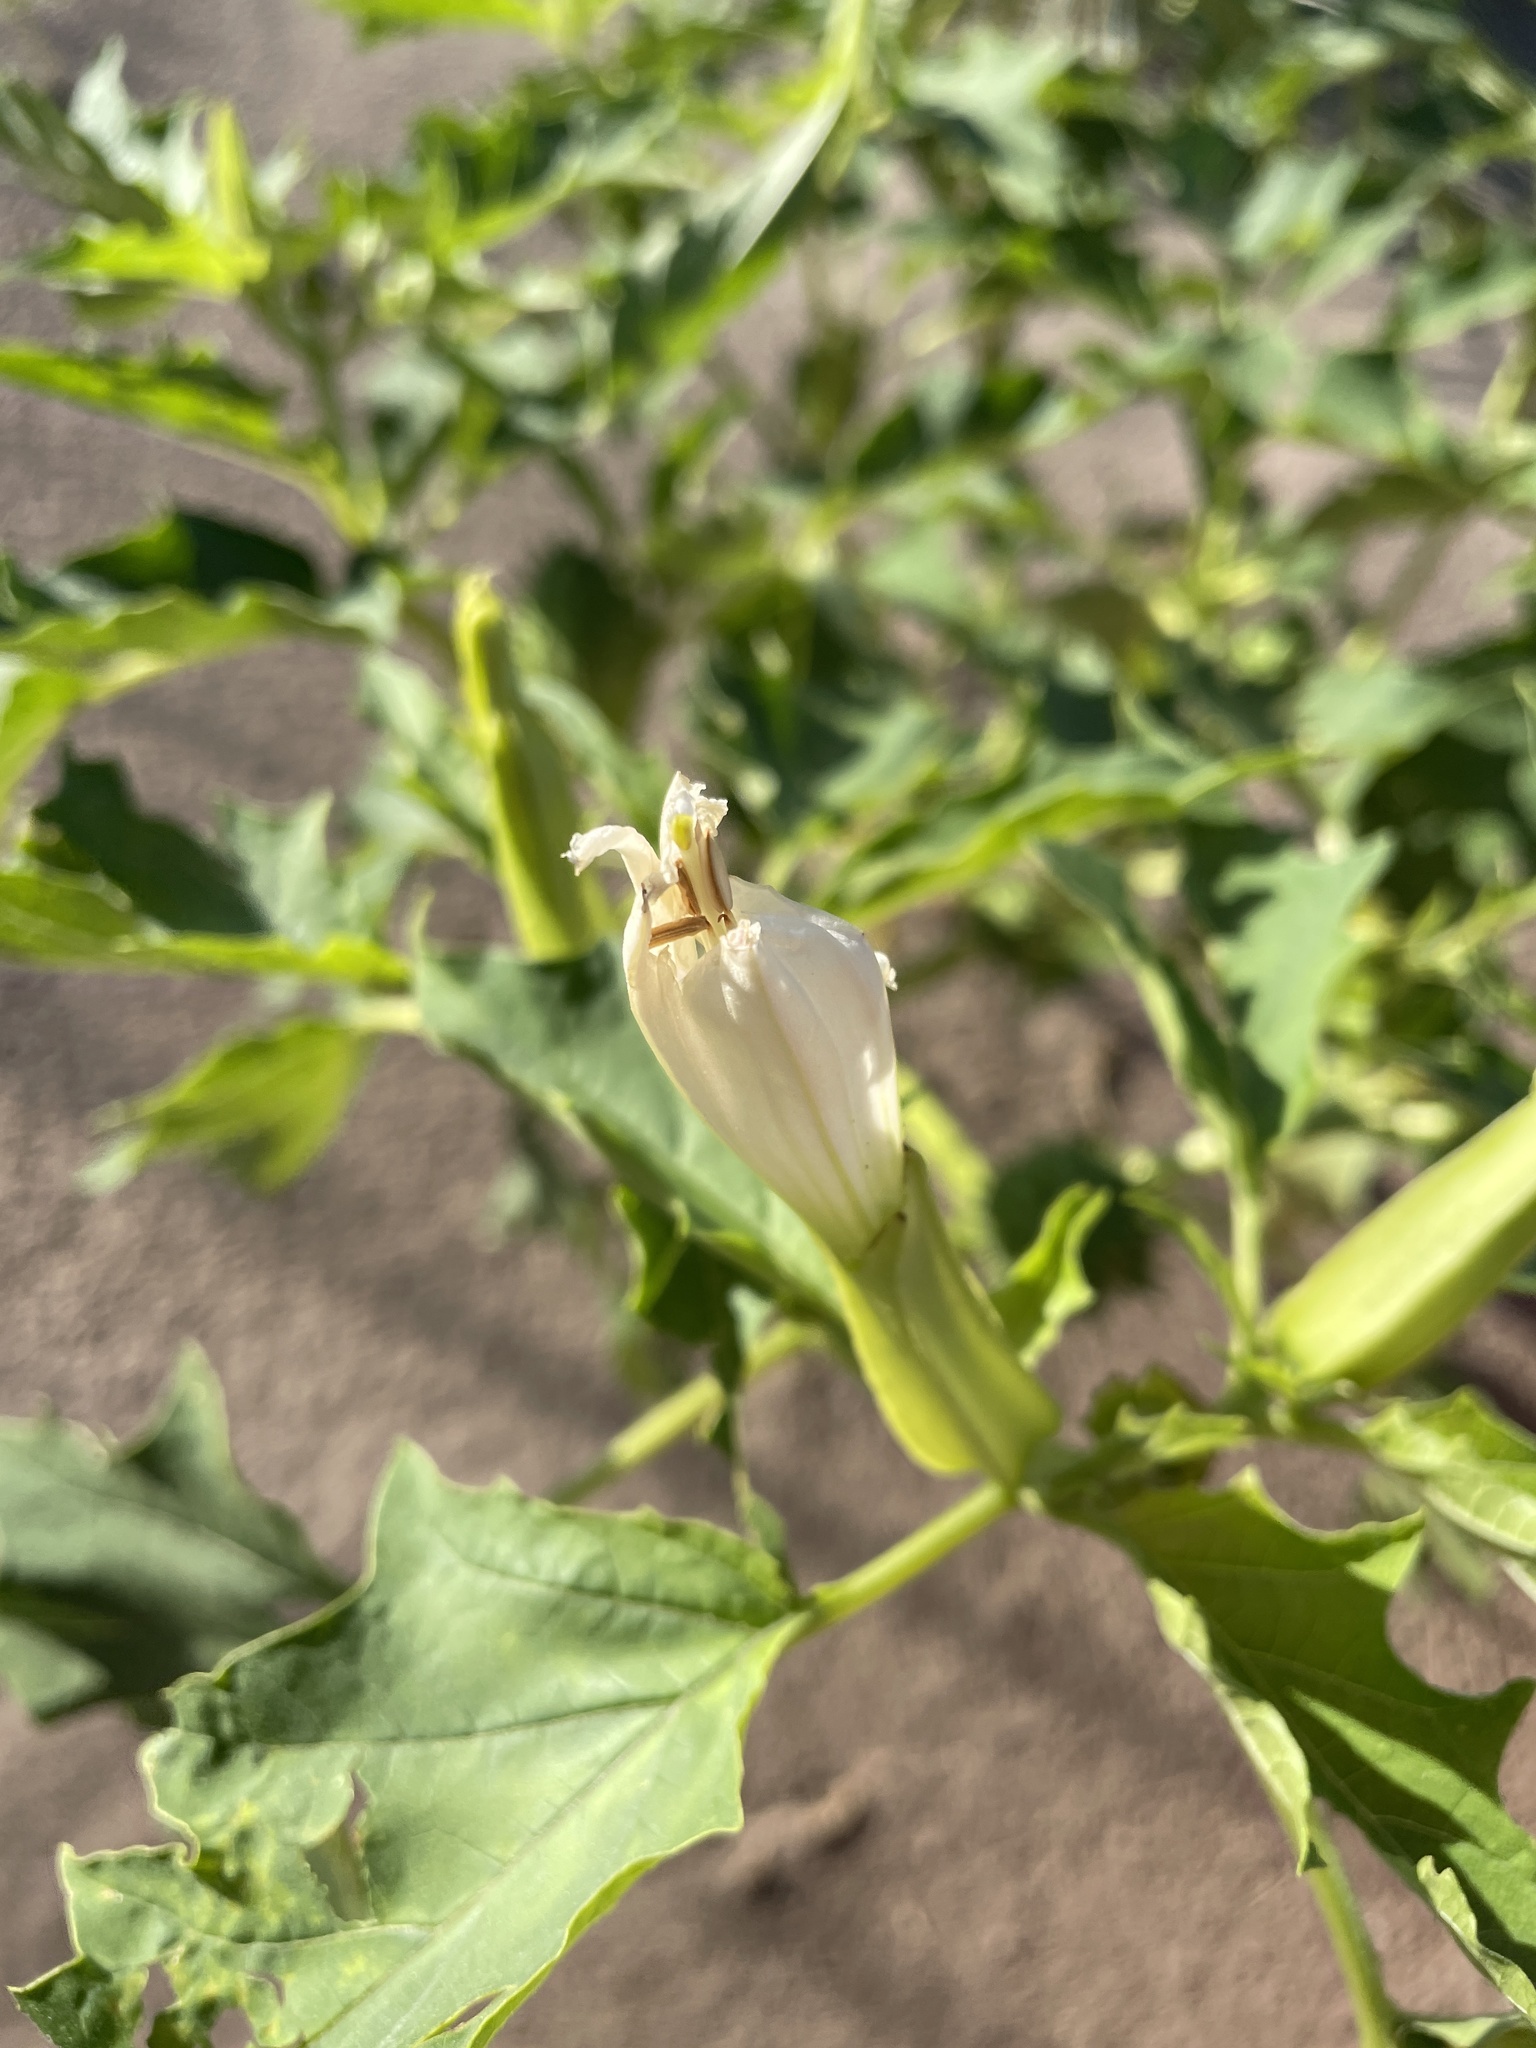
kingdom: Plantae
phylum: Tracheophyta
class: Magnoliopsida
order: Solanales
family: Solanaceae
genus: Datura
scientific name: Datura stramonium
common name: Thorn-apple
